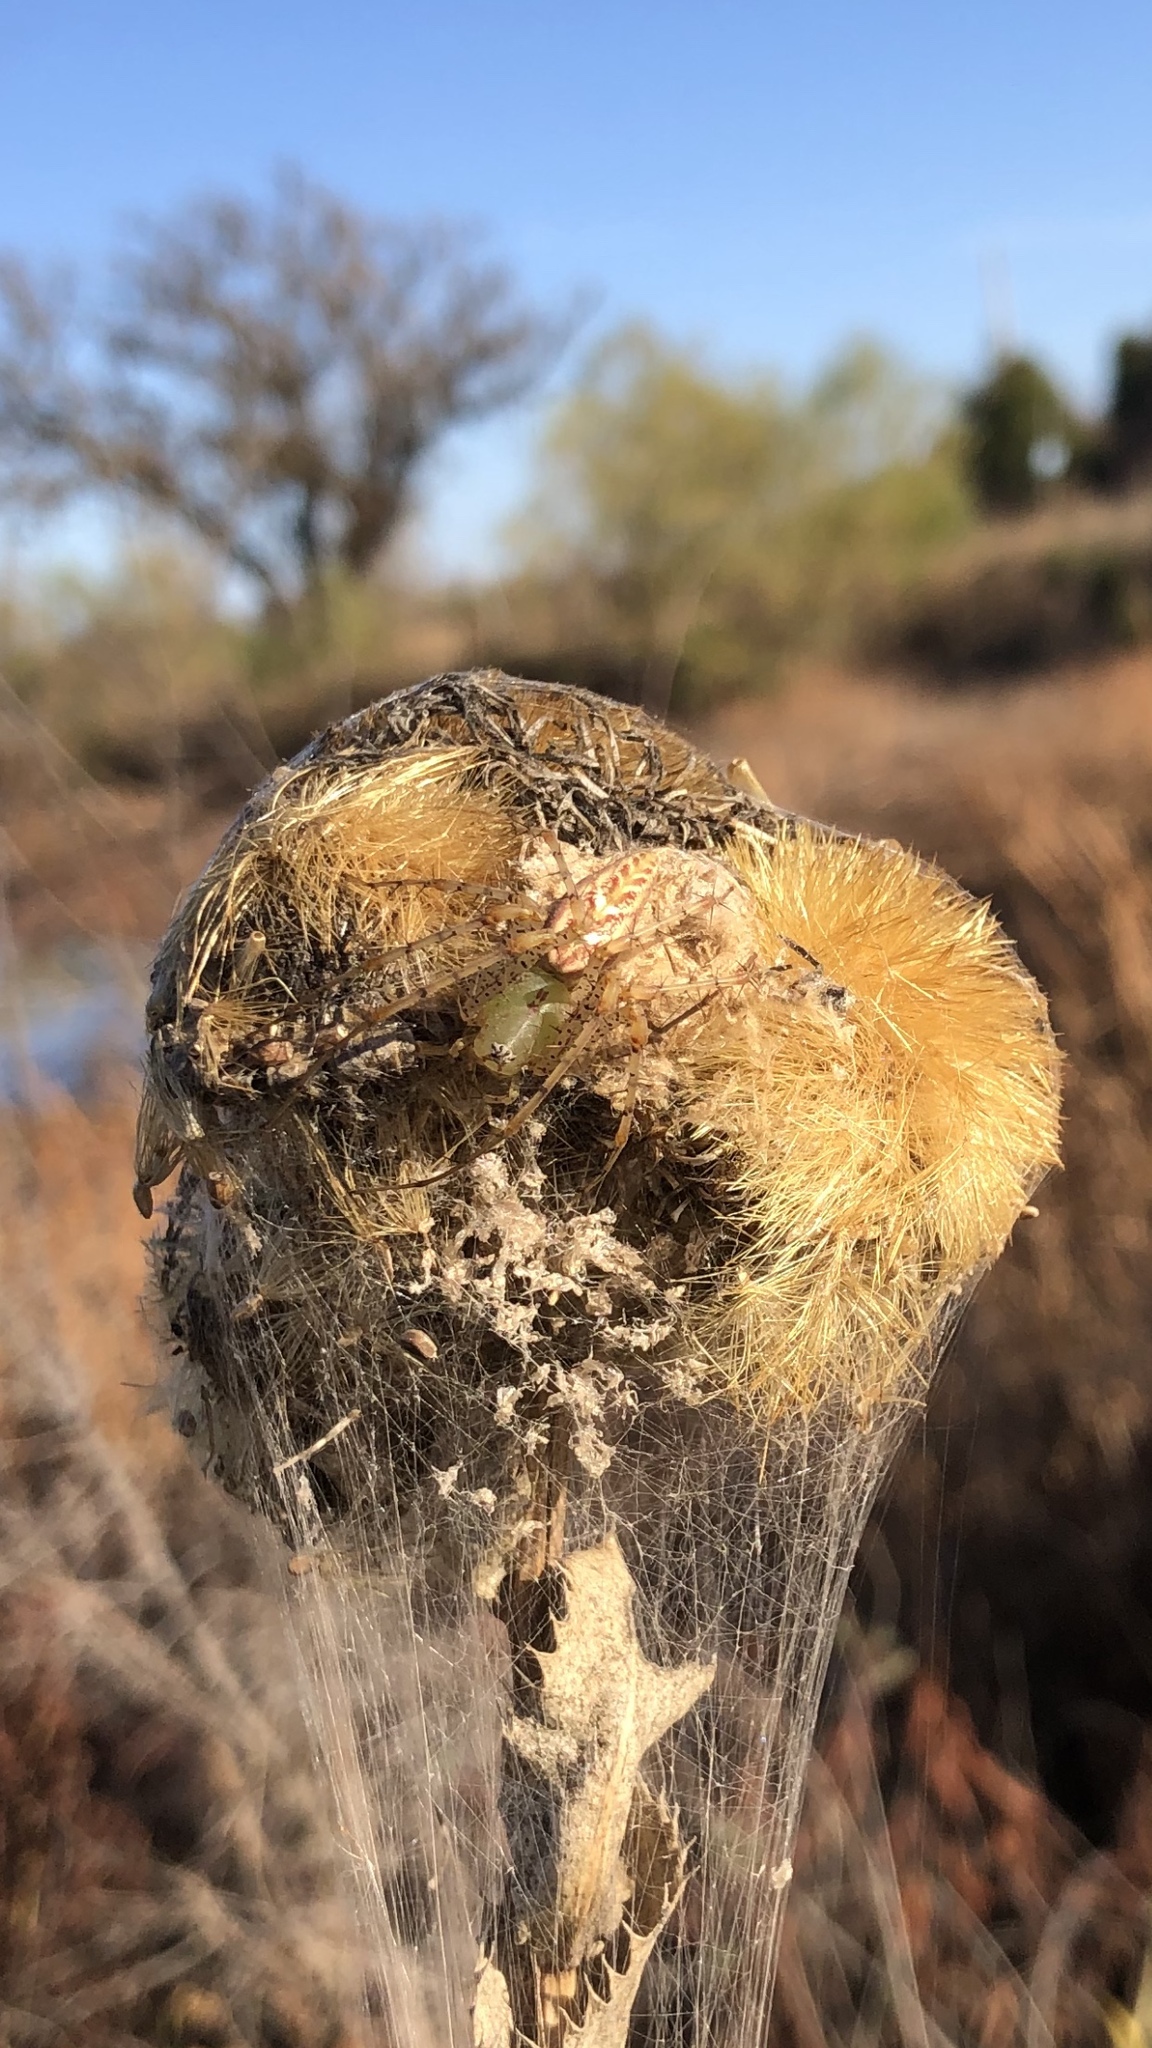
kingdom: Animalia
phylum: Arthropoda
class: Arachnida
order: Araneae
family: Oxyopidae
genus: Peucetia
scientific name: Peucetia viridans
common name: Lynx spiders
